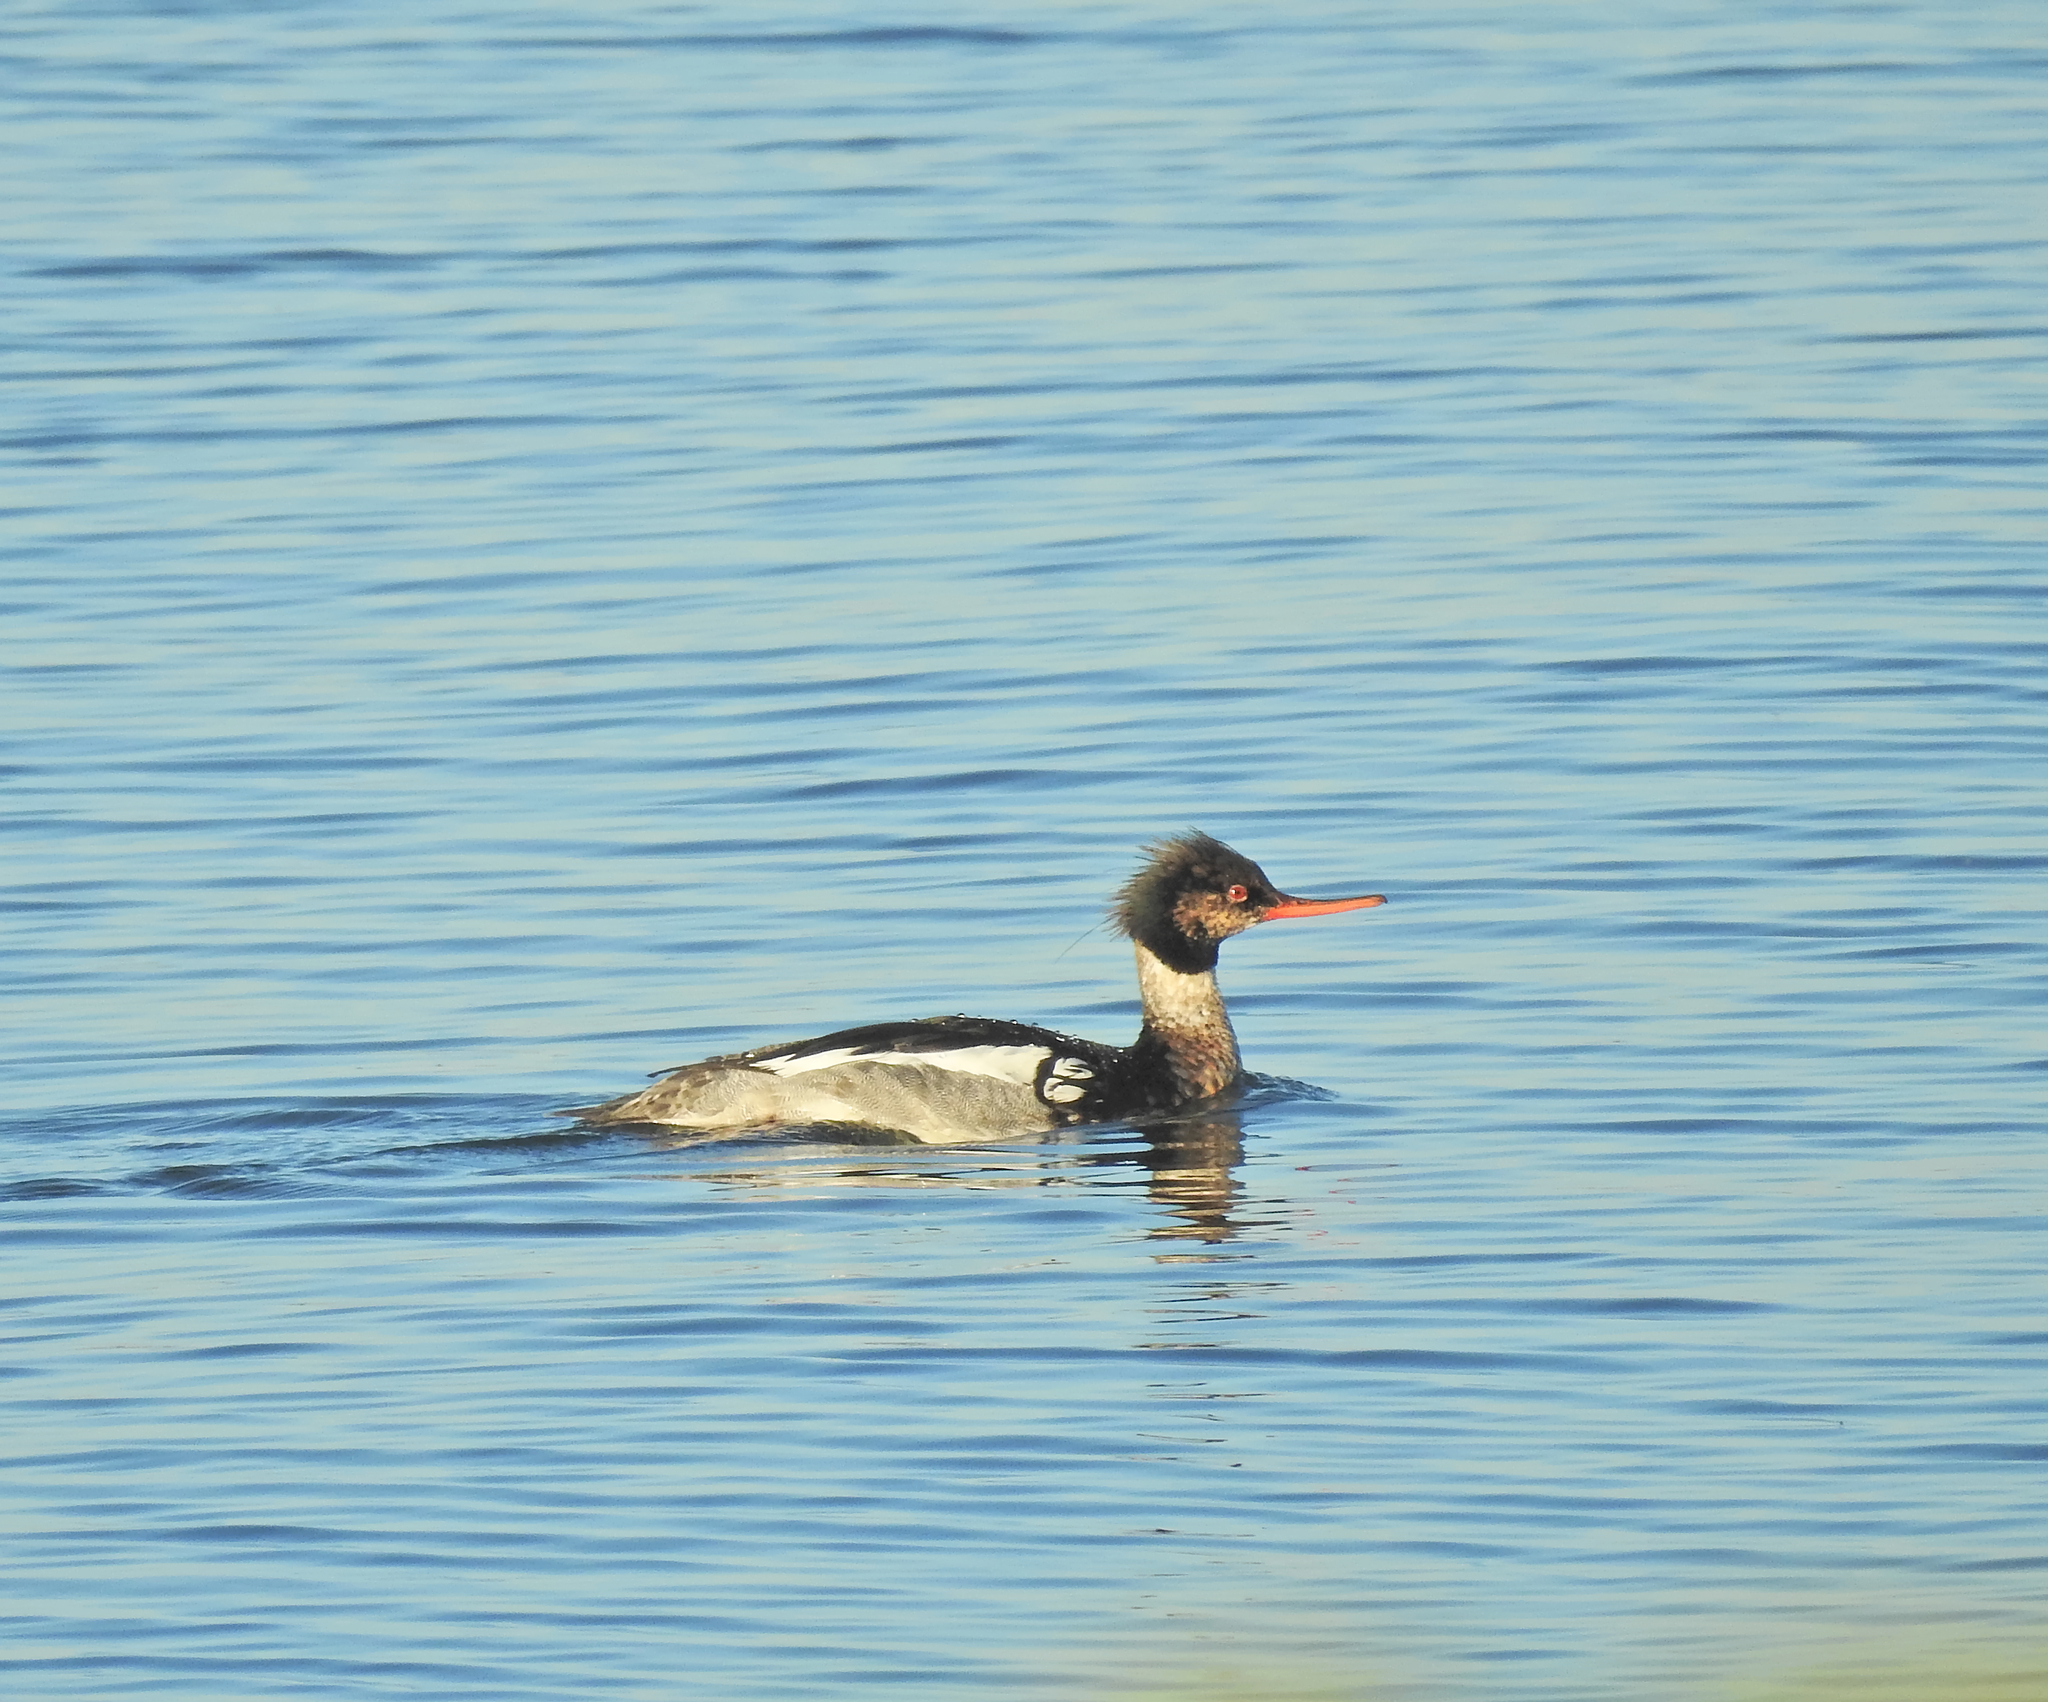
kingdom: Animalia
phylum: Chordata
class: Aves
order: Anseriformes
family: Anatidae
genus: Mergus
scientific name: Mergus serrator
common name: Red-breasted merganser
